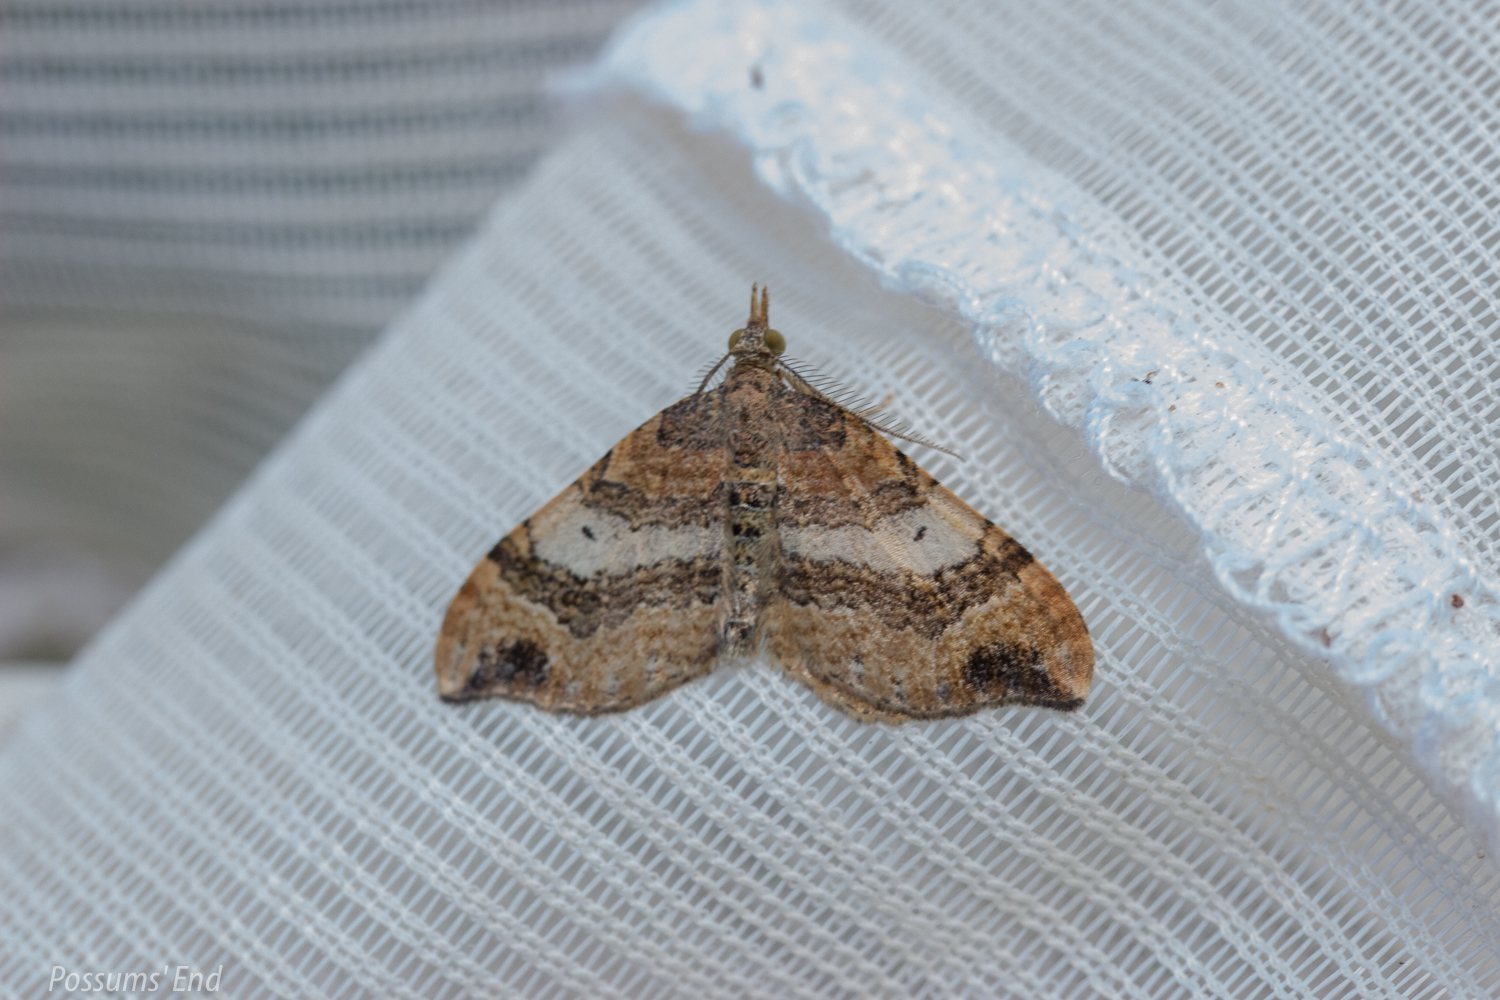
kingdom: Animalia
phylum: Arthropoda
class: Insecta
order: Lepidoptera
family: Geometridae
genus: Homodotis
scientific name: Homodotis megaspilata
